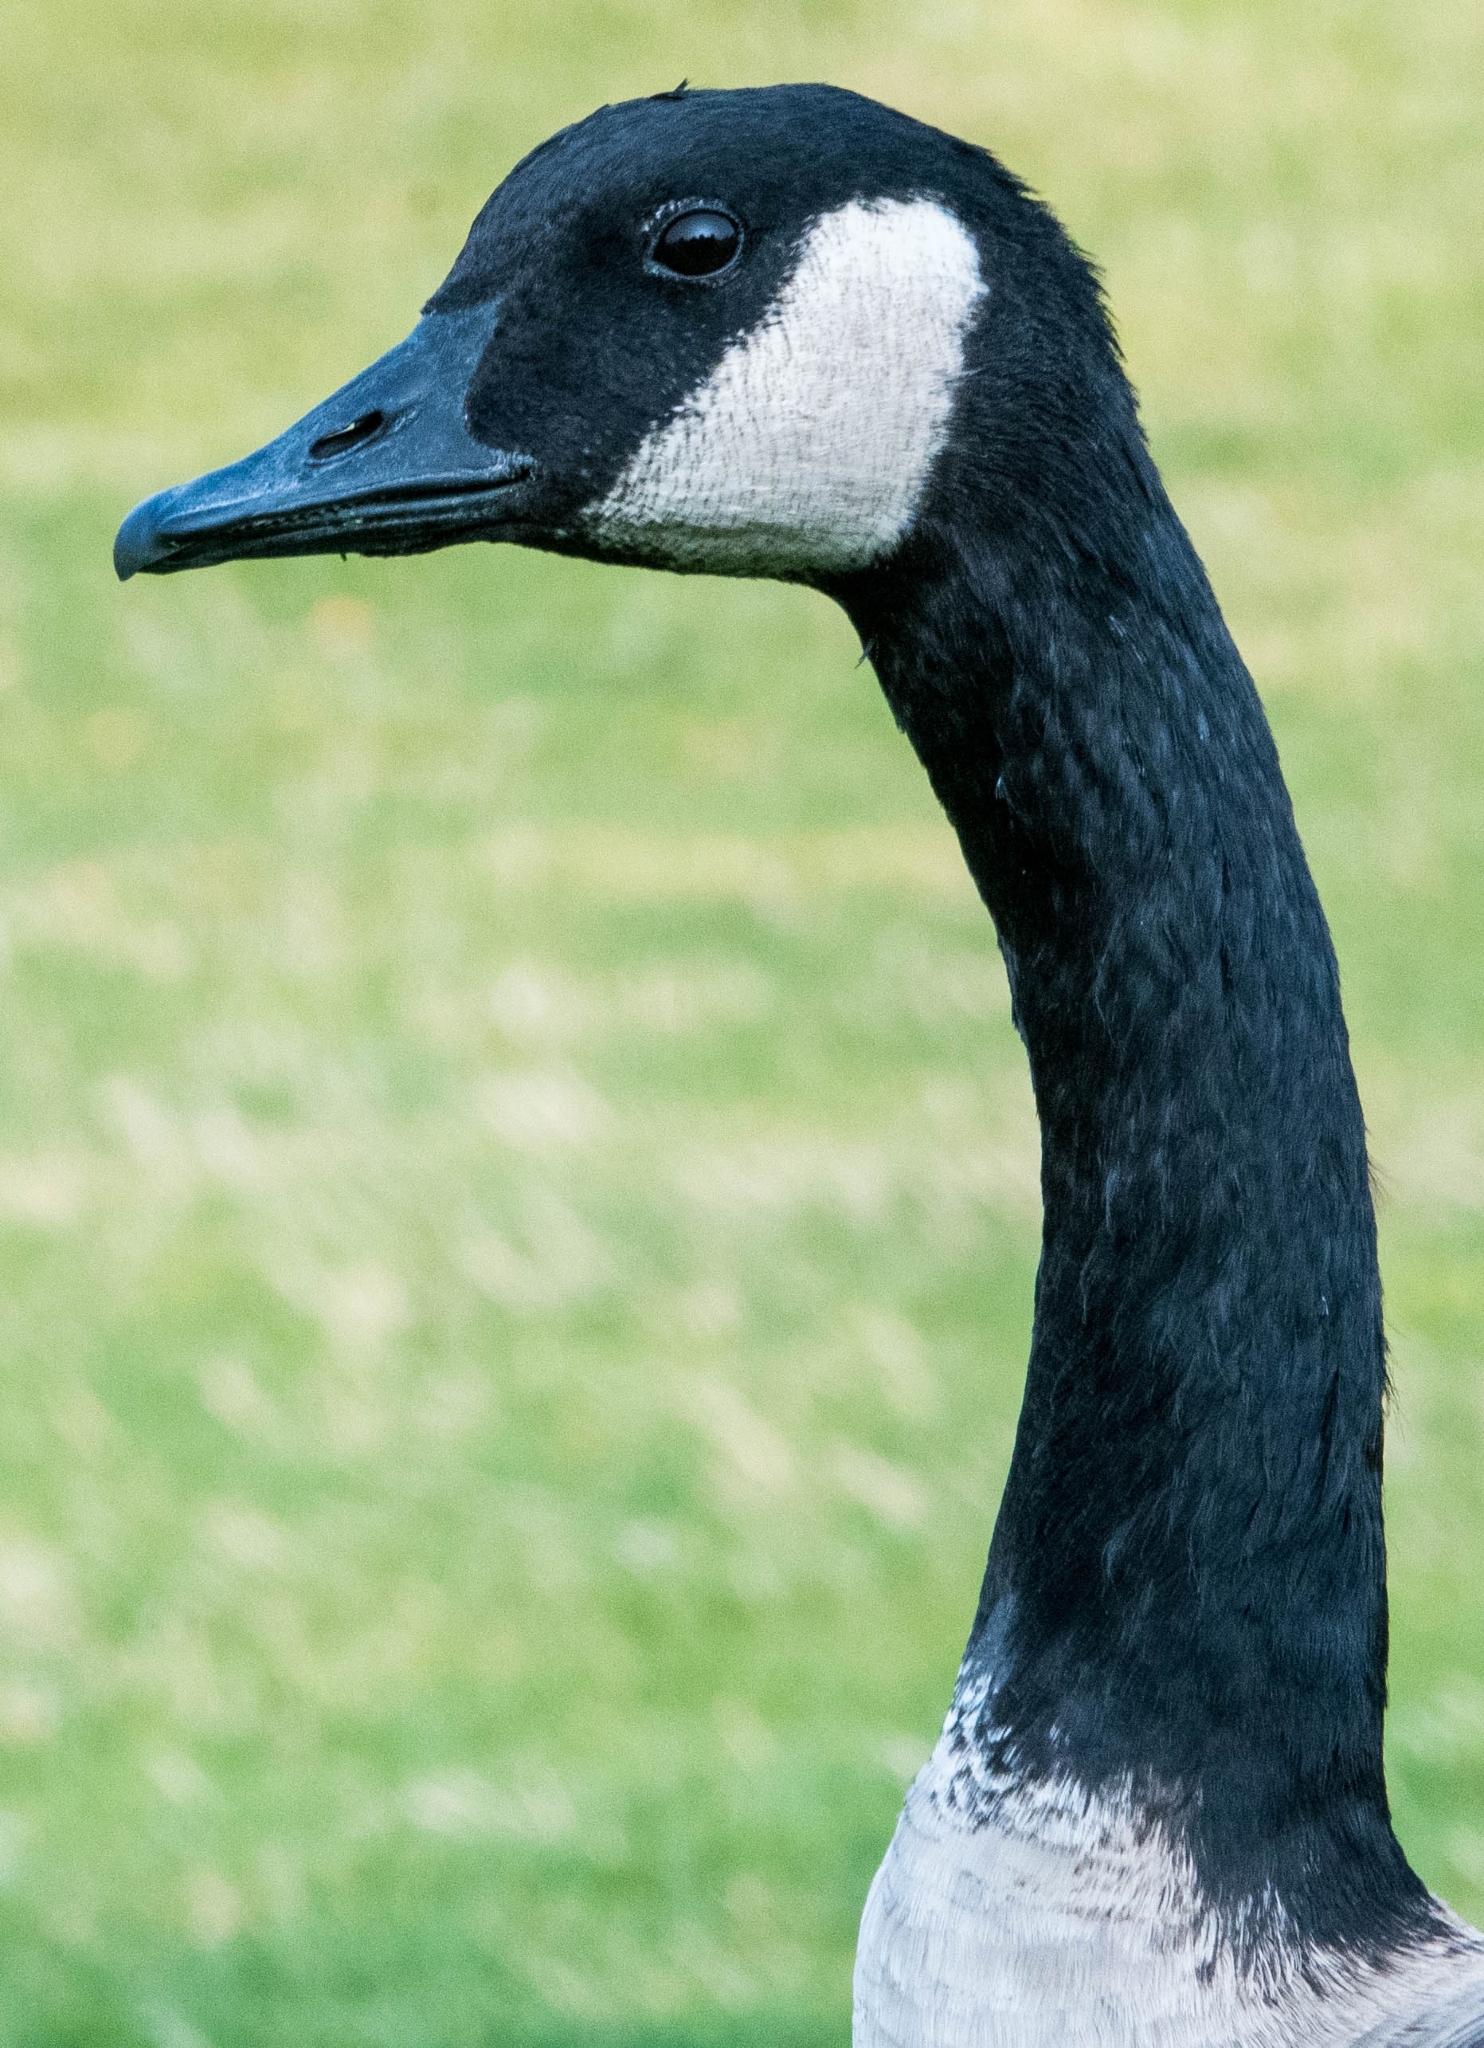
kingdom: Animalia
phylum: Chordata
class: Aves
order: Anseriformes
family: Anatidae
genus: Branta
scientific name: Branta canadensis
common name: Canada goose
